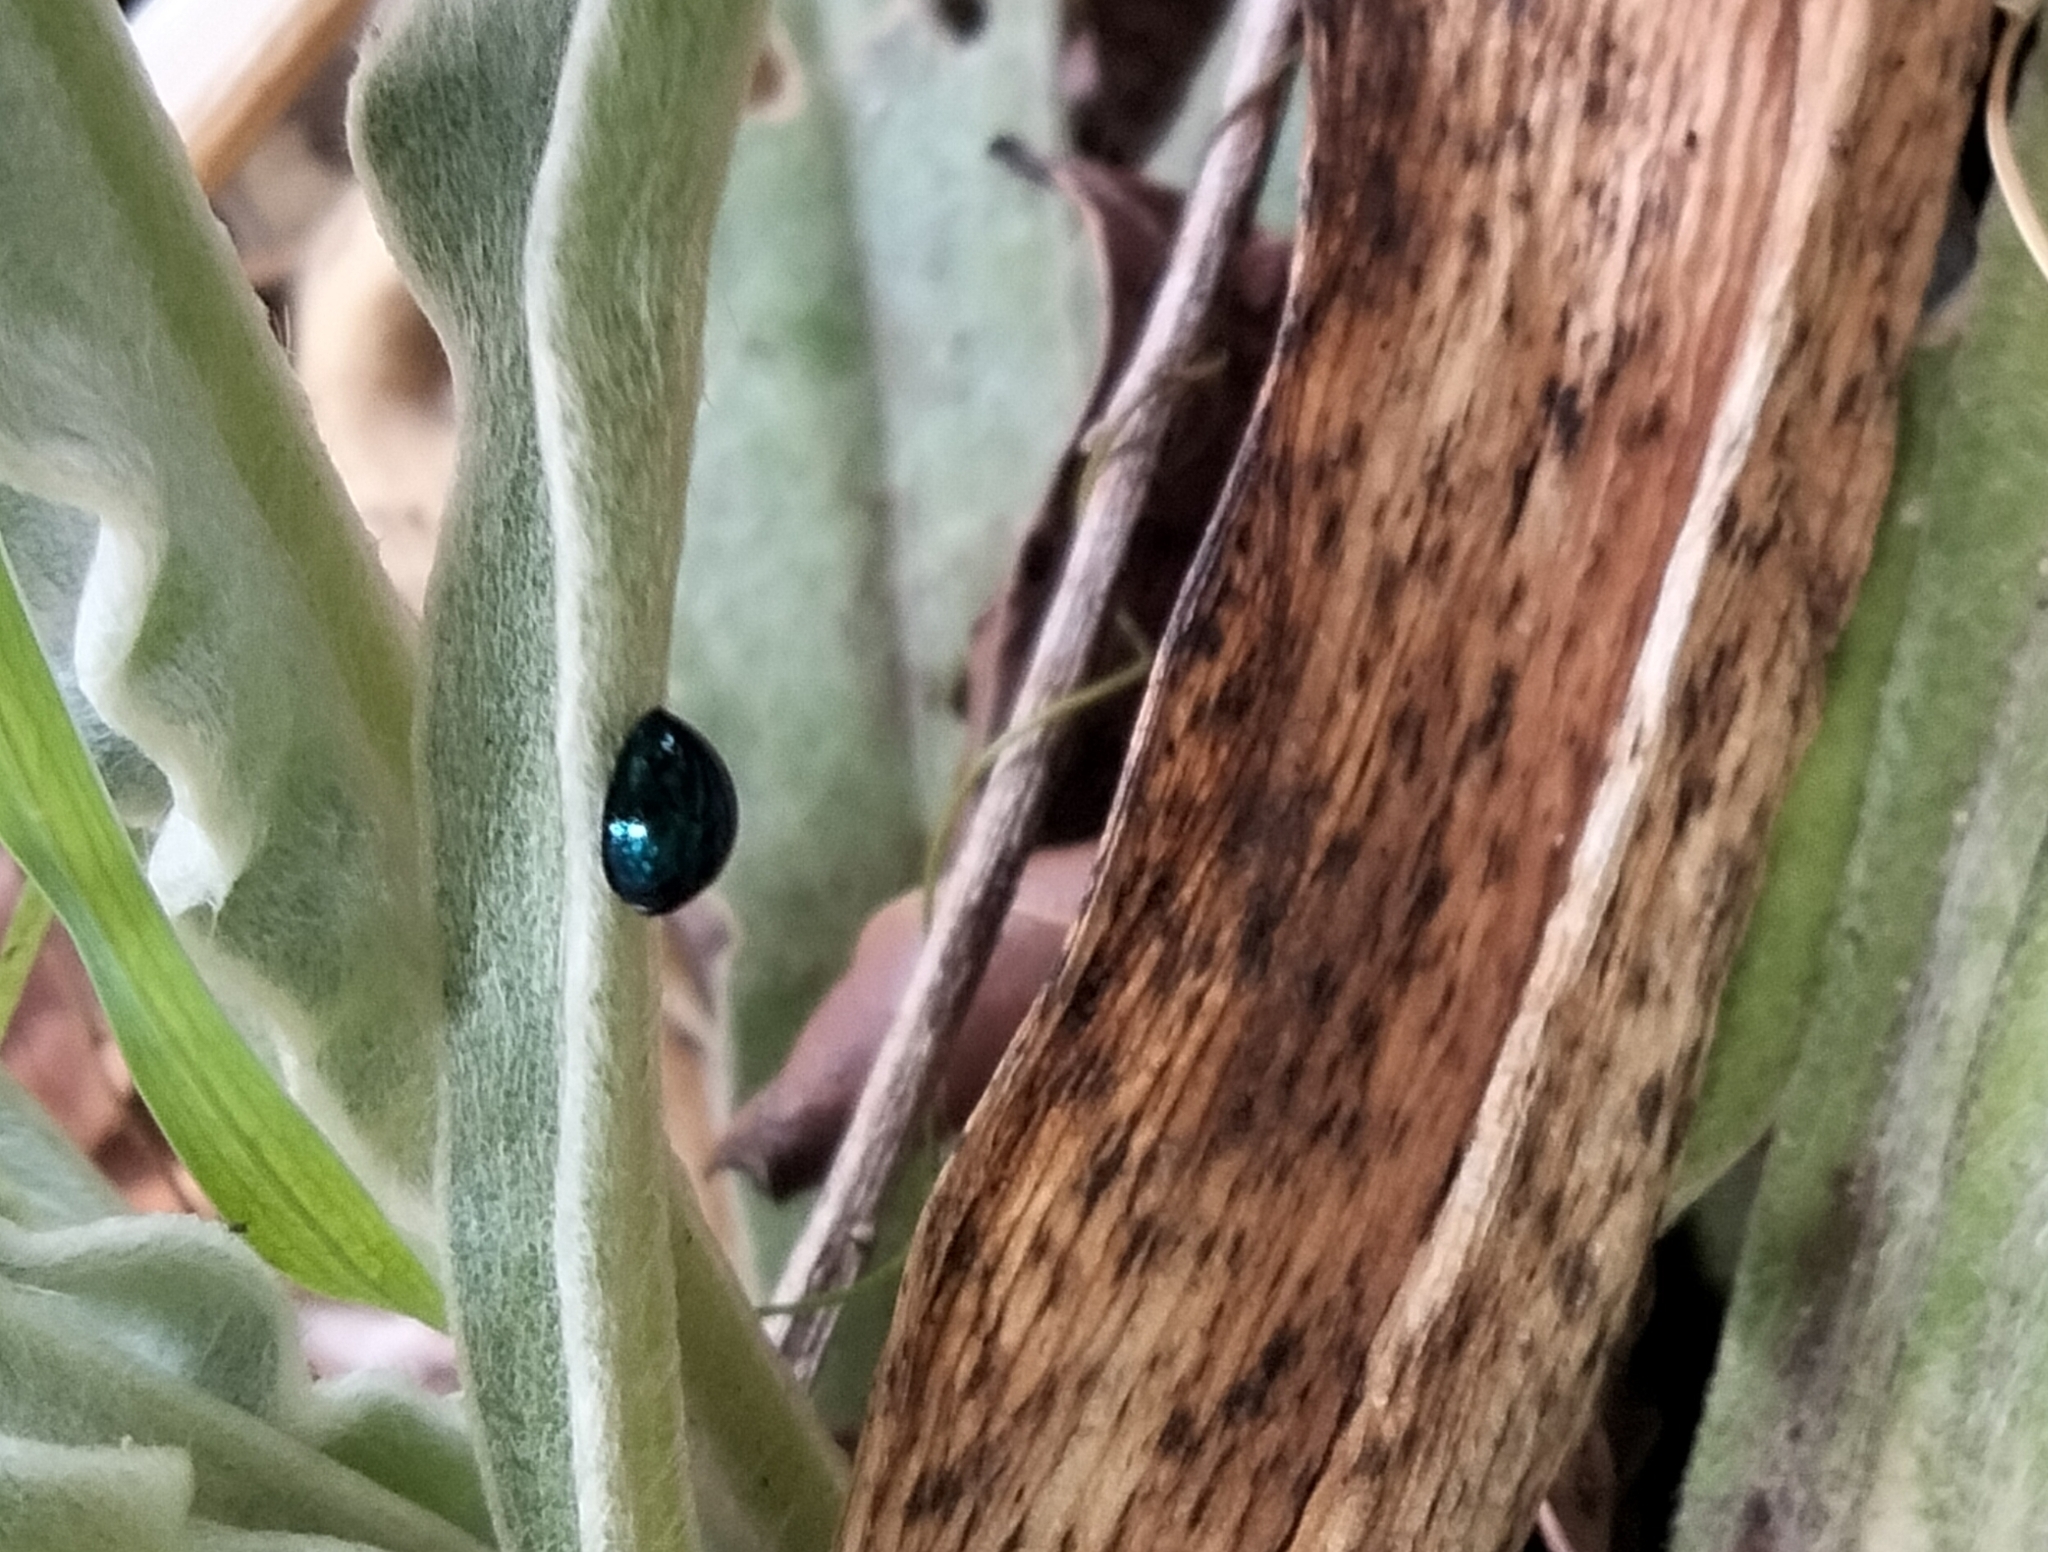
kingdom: Animalia
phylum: Arthropoda
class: Insecta
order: Coleoptera
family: Coccinellidae
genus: Halmus
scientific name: Halmus chalybeus
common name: Steel blue ladybird beetle
